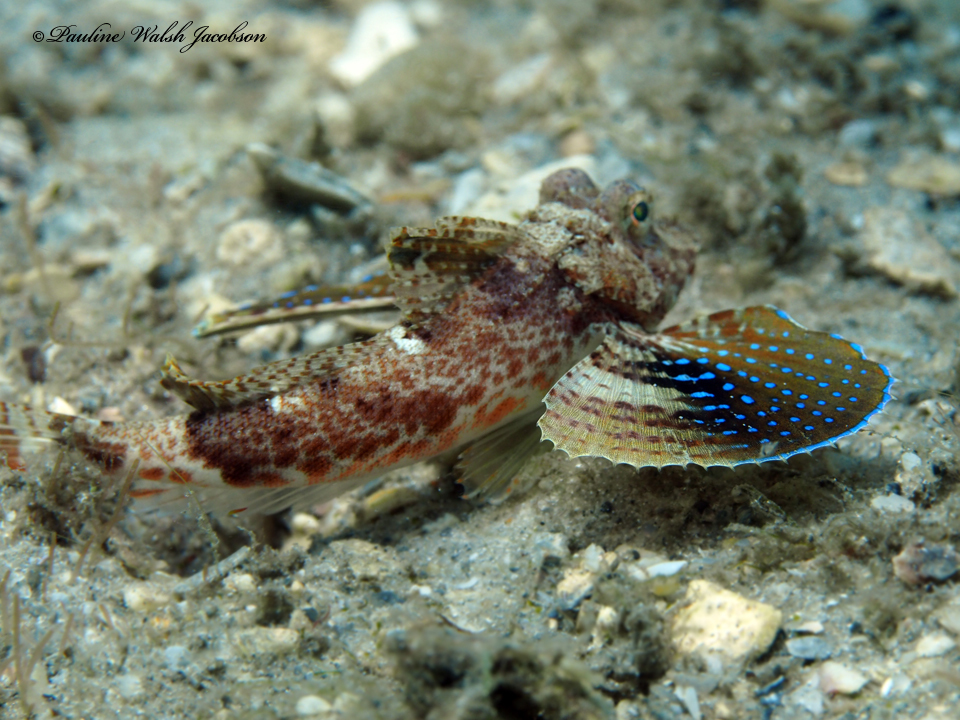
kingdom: Animalia
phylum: Chordata
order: Scorpaeniformes
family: Triglidae
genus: Prionotus
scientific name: Prionotus roseus
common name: Bluespotted searobin
